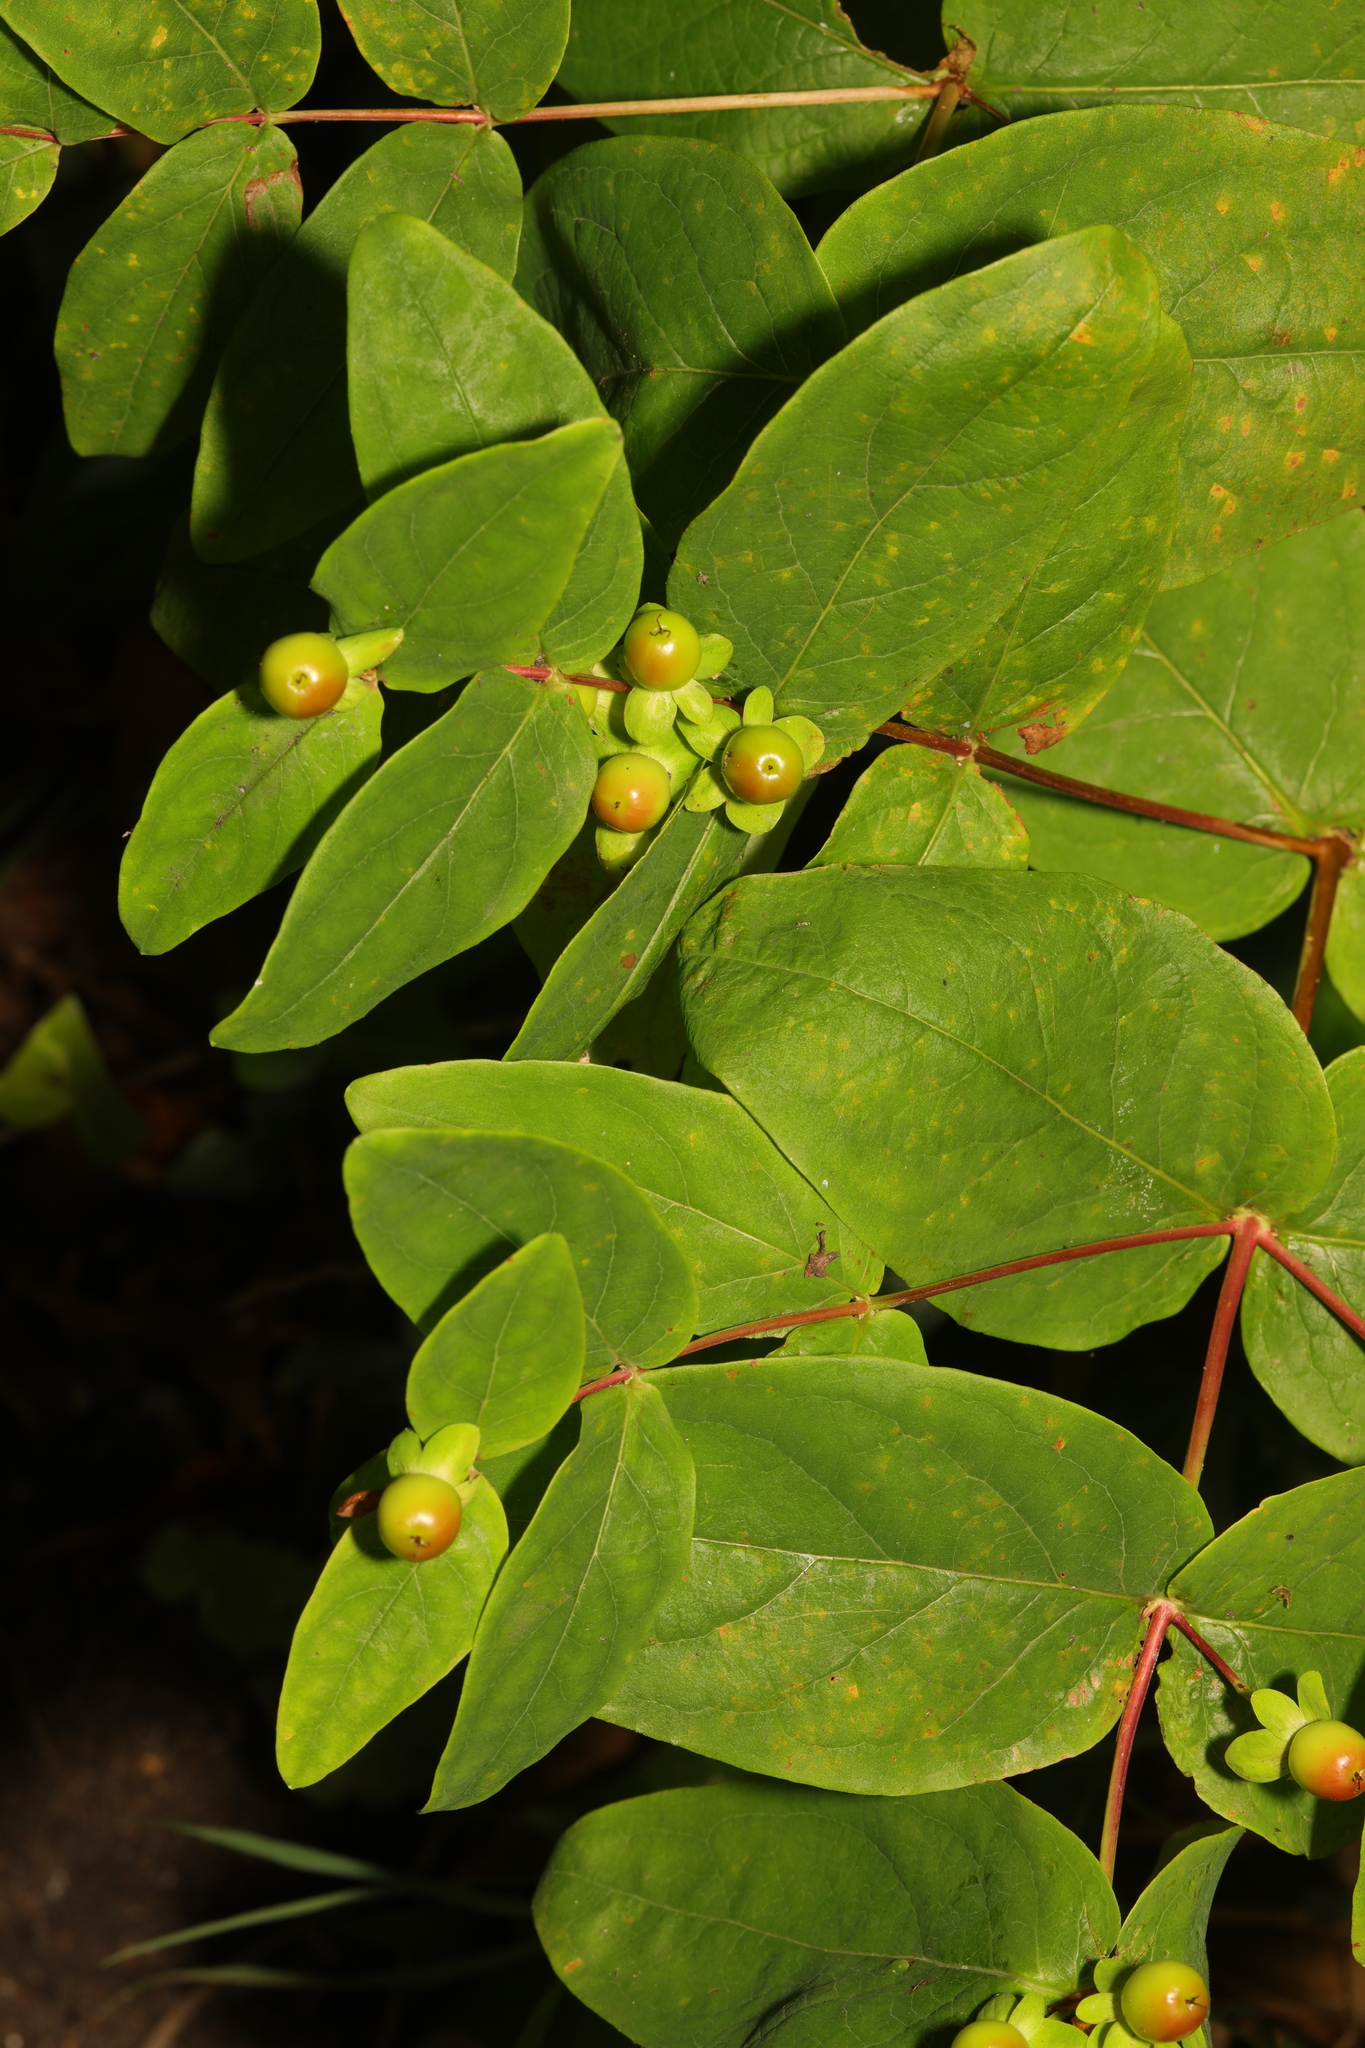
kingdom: Plantae
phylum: Tracheophyta
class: Magnoliopsida
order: Malpighiales
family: Hypericaceae
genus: Hypericum
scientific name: Hypericum androsaemum
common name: Sweet-amber
